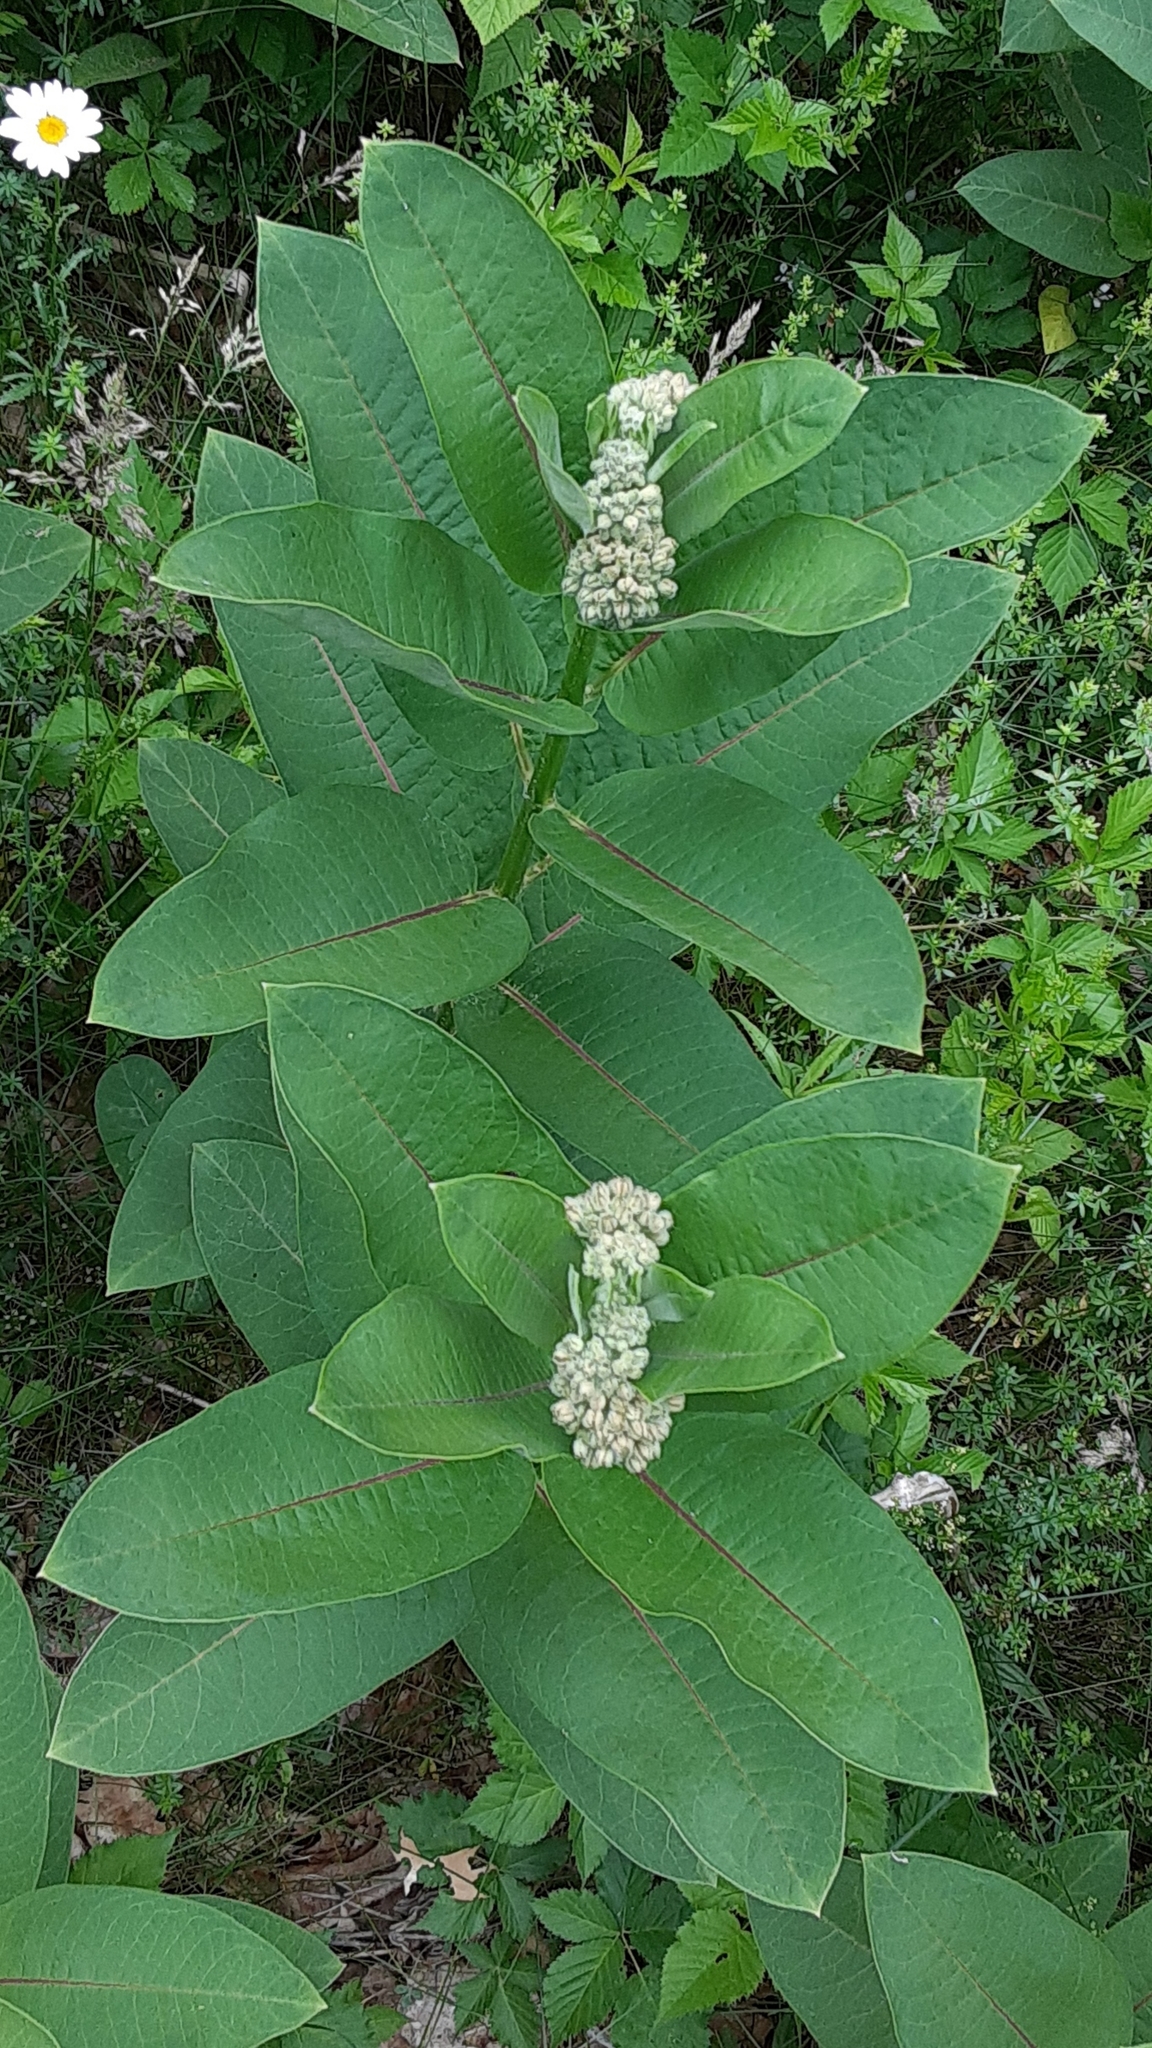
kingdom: Plantae
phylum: Tracheophyta
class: Magnoliopsida
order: Gentianales
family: Apocynaceae
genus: Asclepias
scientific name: Asclepias syriaca
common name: Common milkweed
